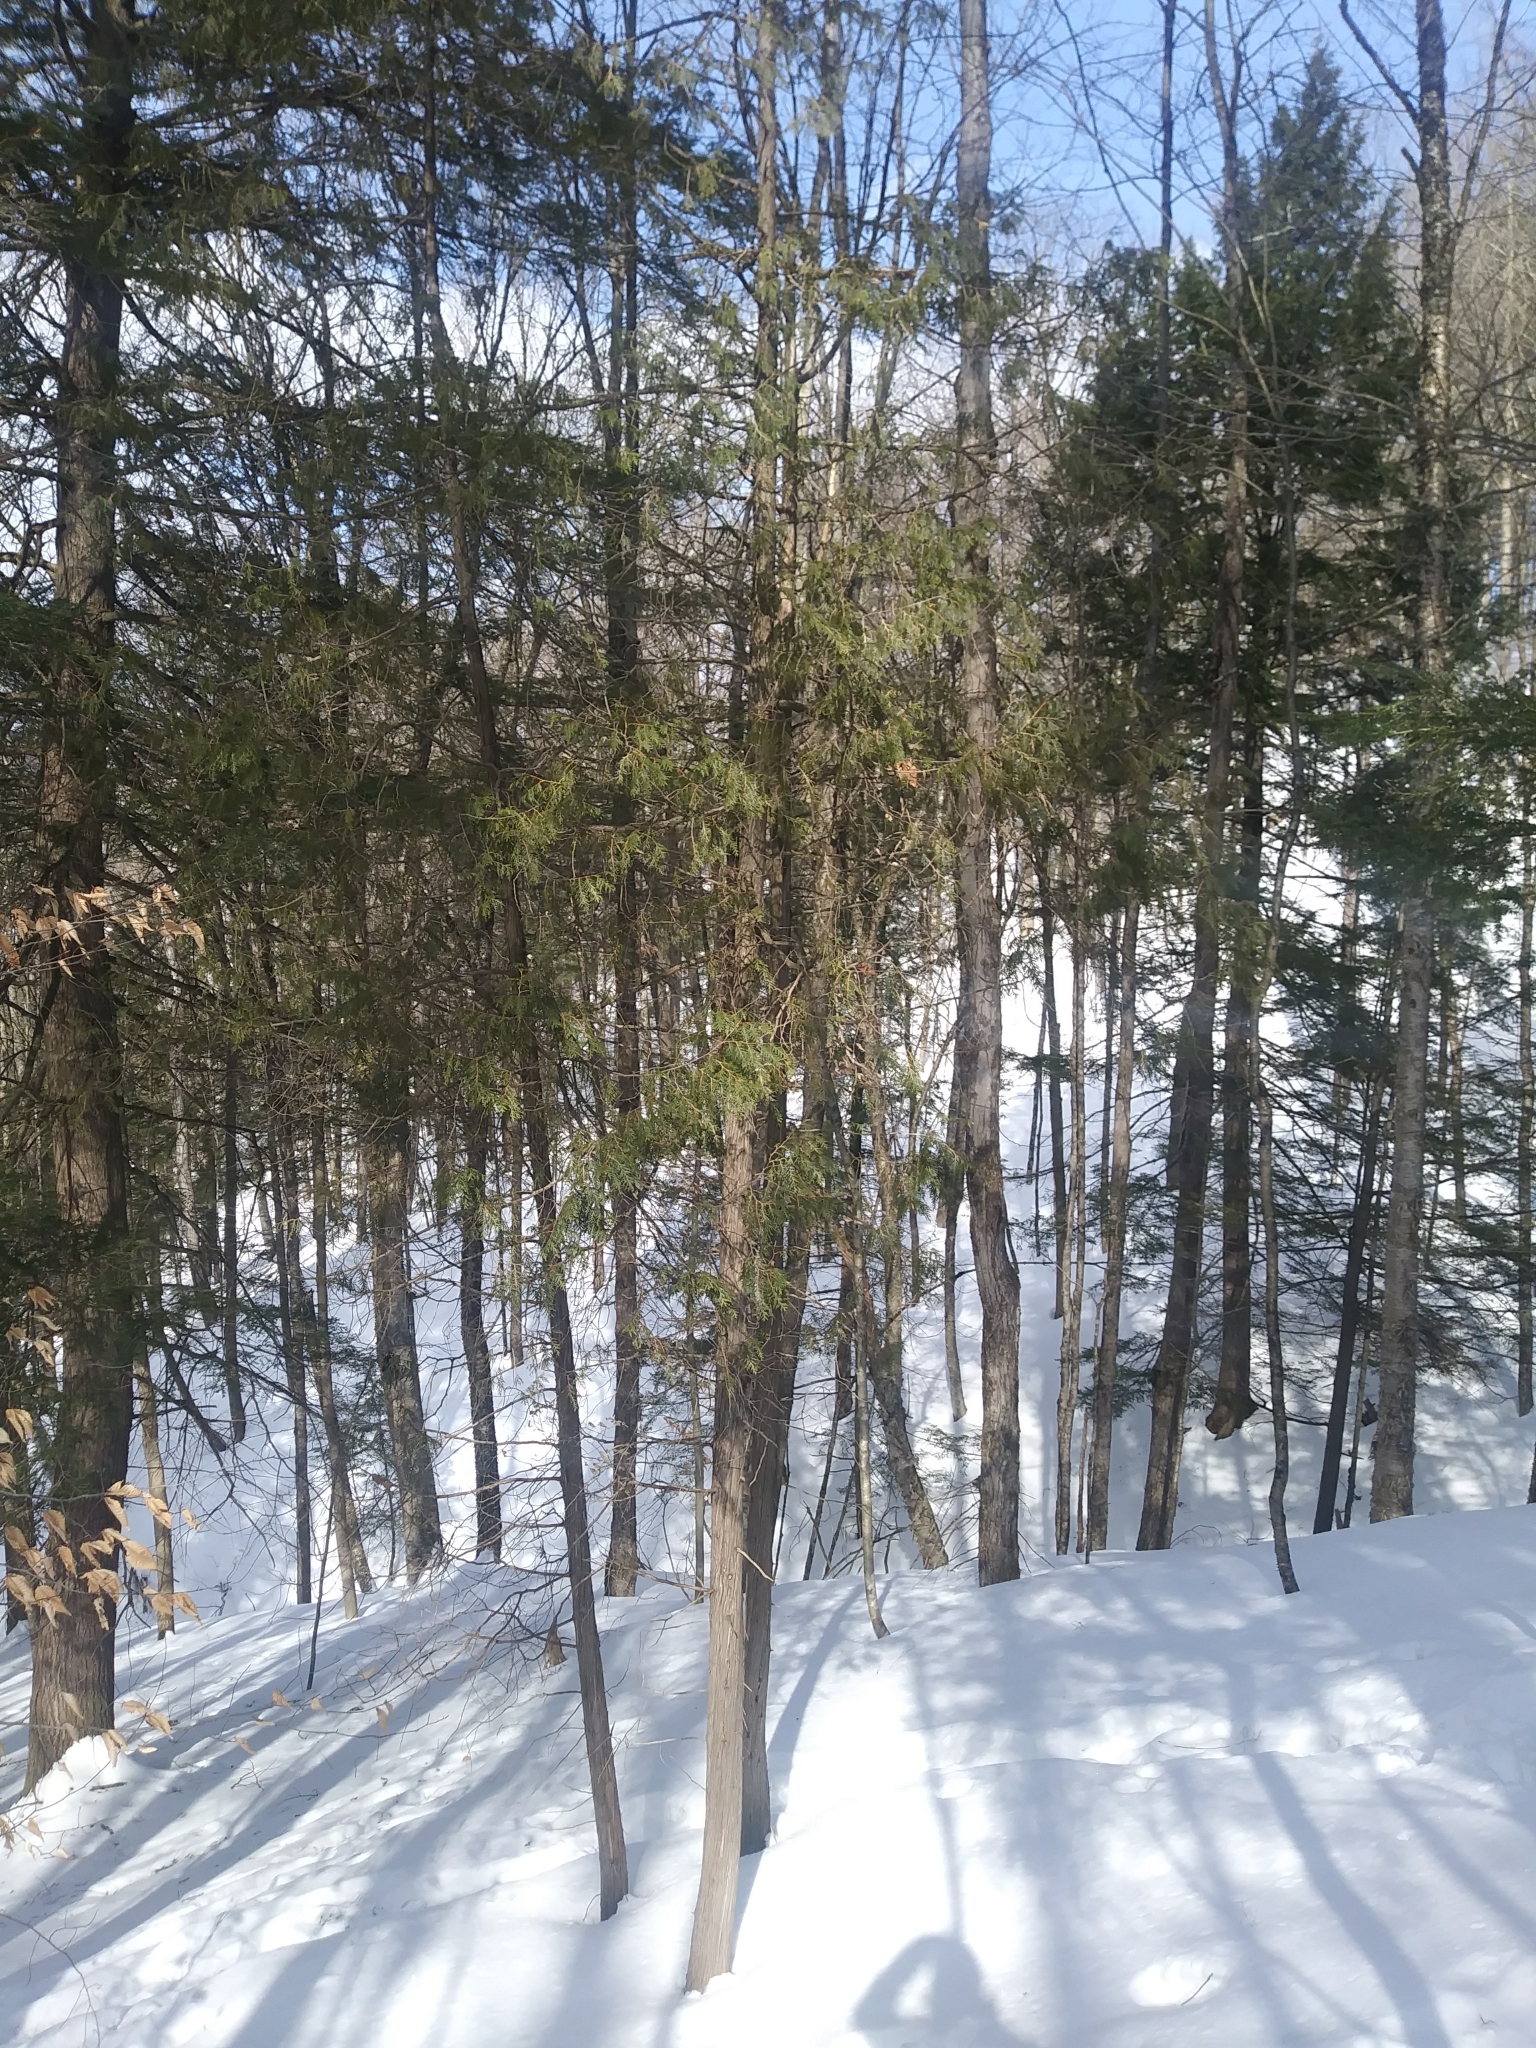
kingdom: Plantae
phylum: Tracheophyta
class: Pinopsida
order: Pinales
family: Cupressaceae
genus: Thuja
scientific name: Thuja occidentalis
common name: Northern white-cedar
